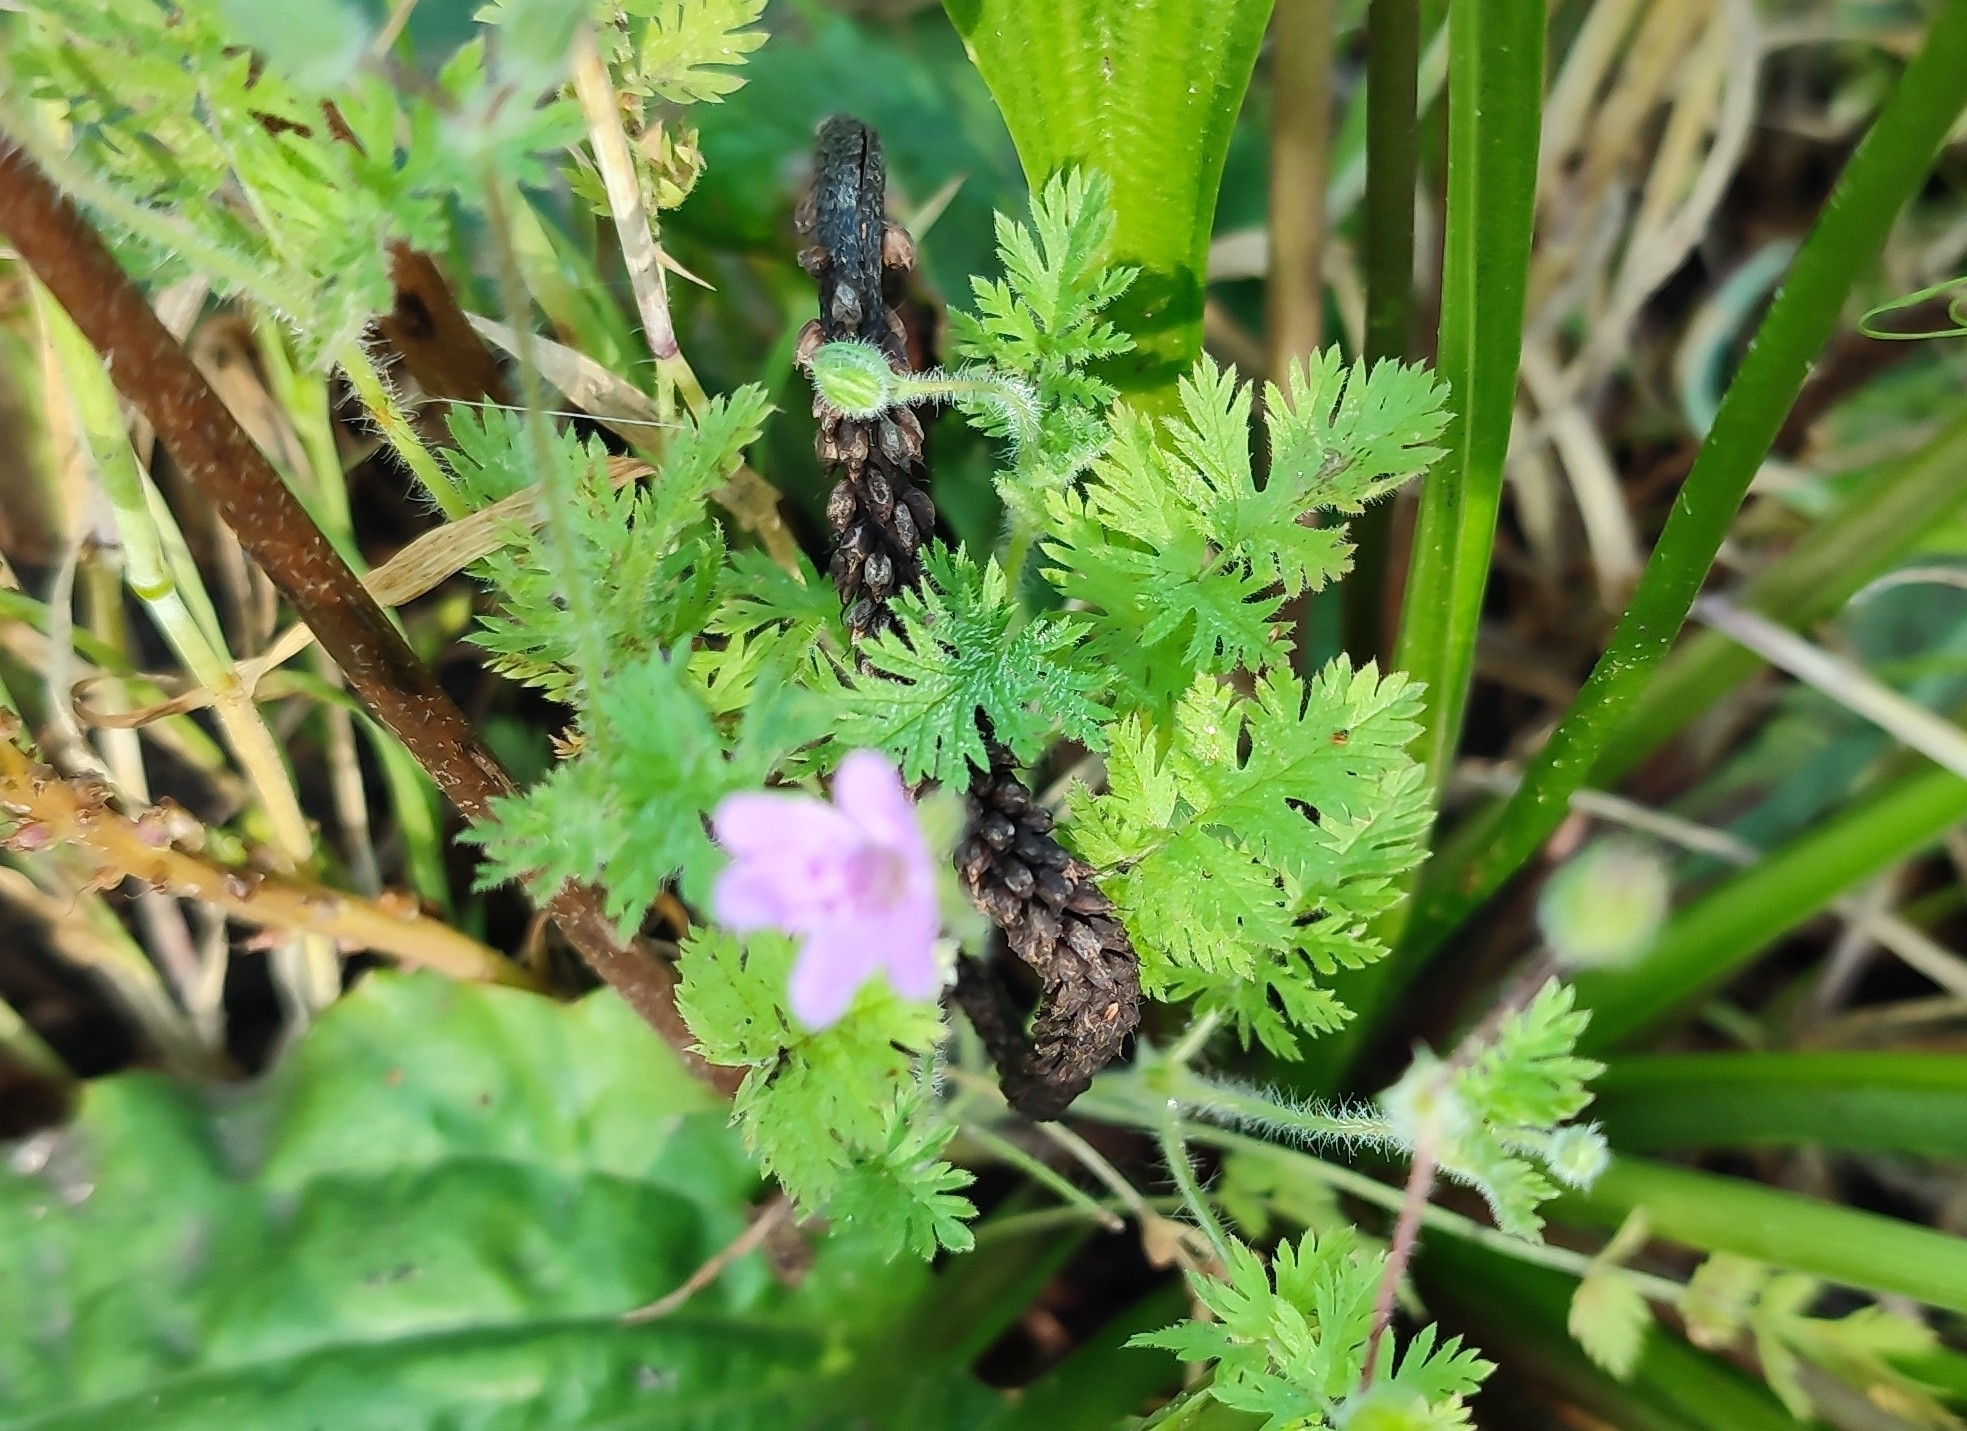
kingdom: Plantae
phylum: Tracheophyta
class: Magnoliopsida
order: Geraniales
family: Geraniaceae
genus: Erodium
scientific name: Erodium cicutarium
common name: Common stork's-bill
